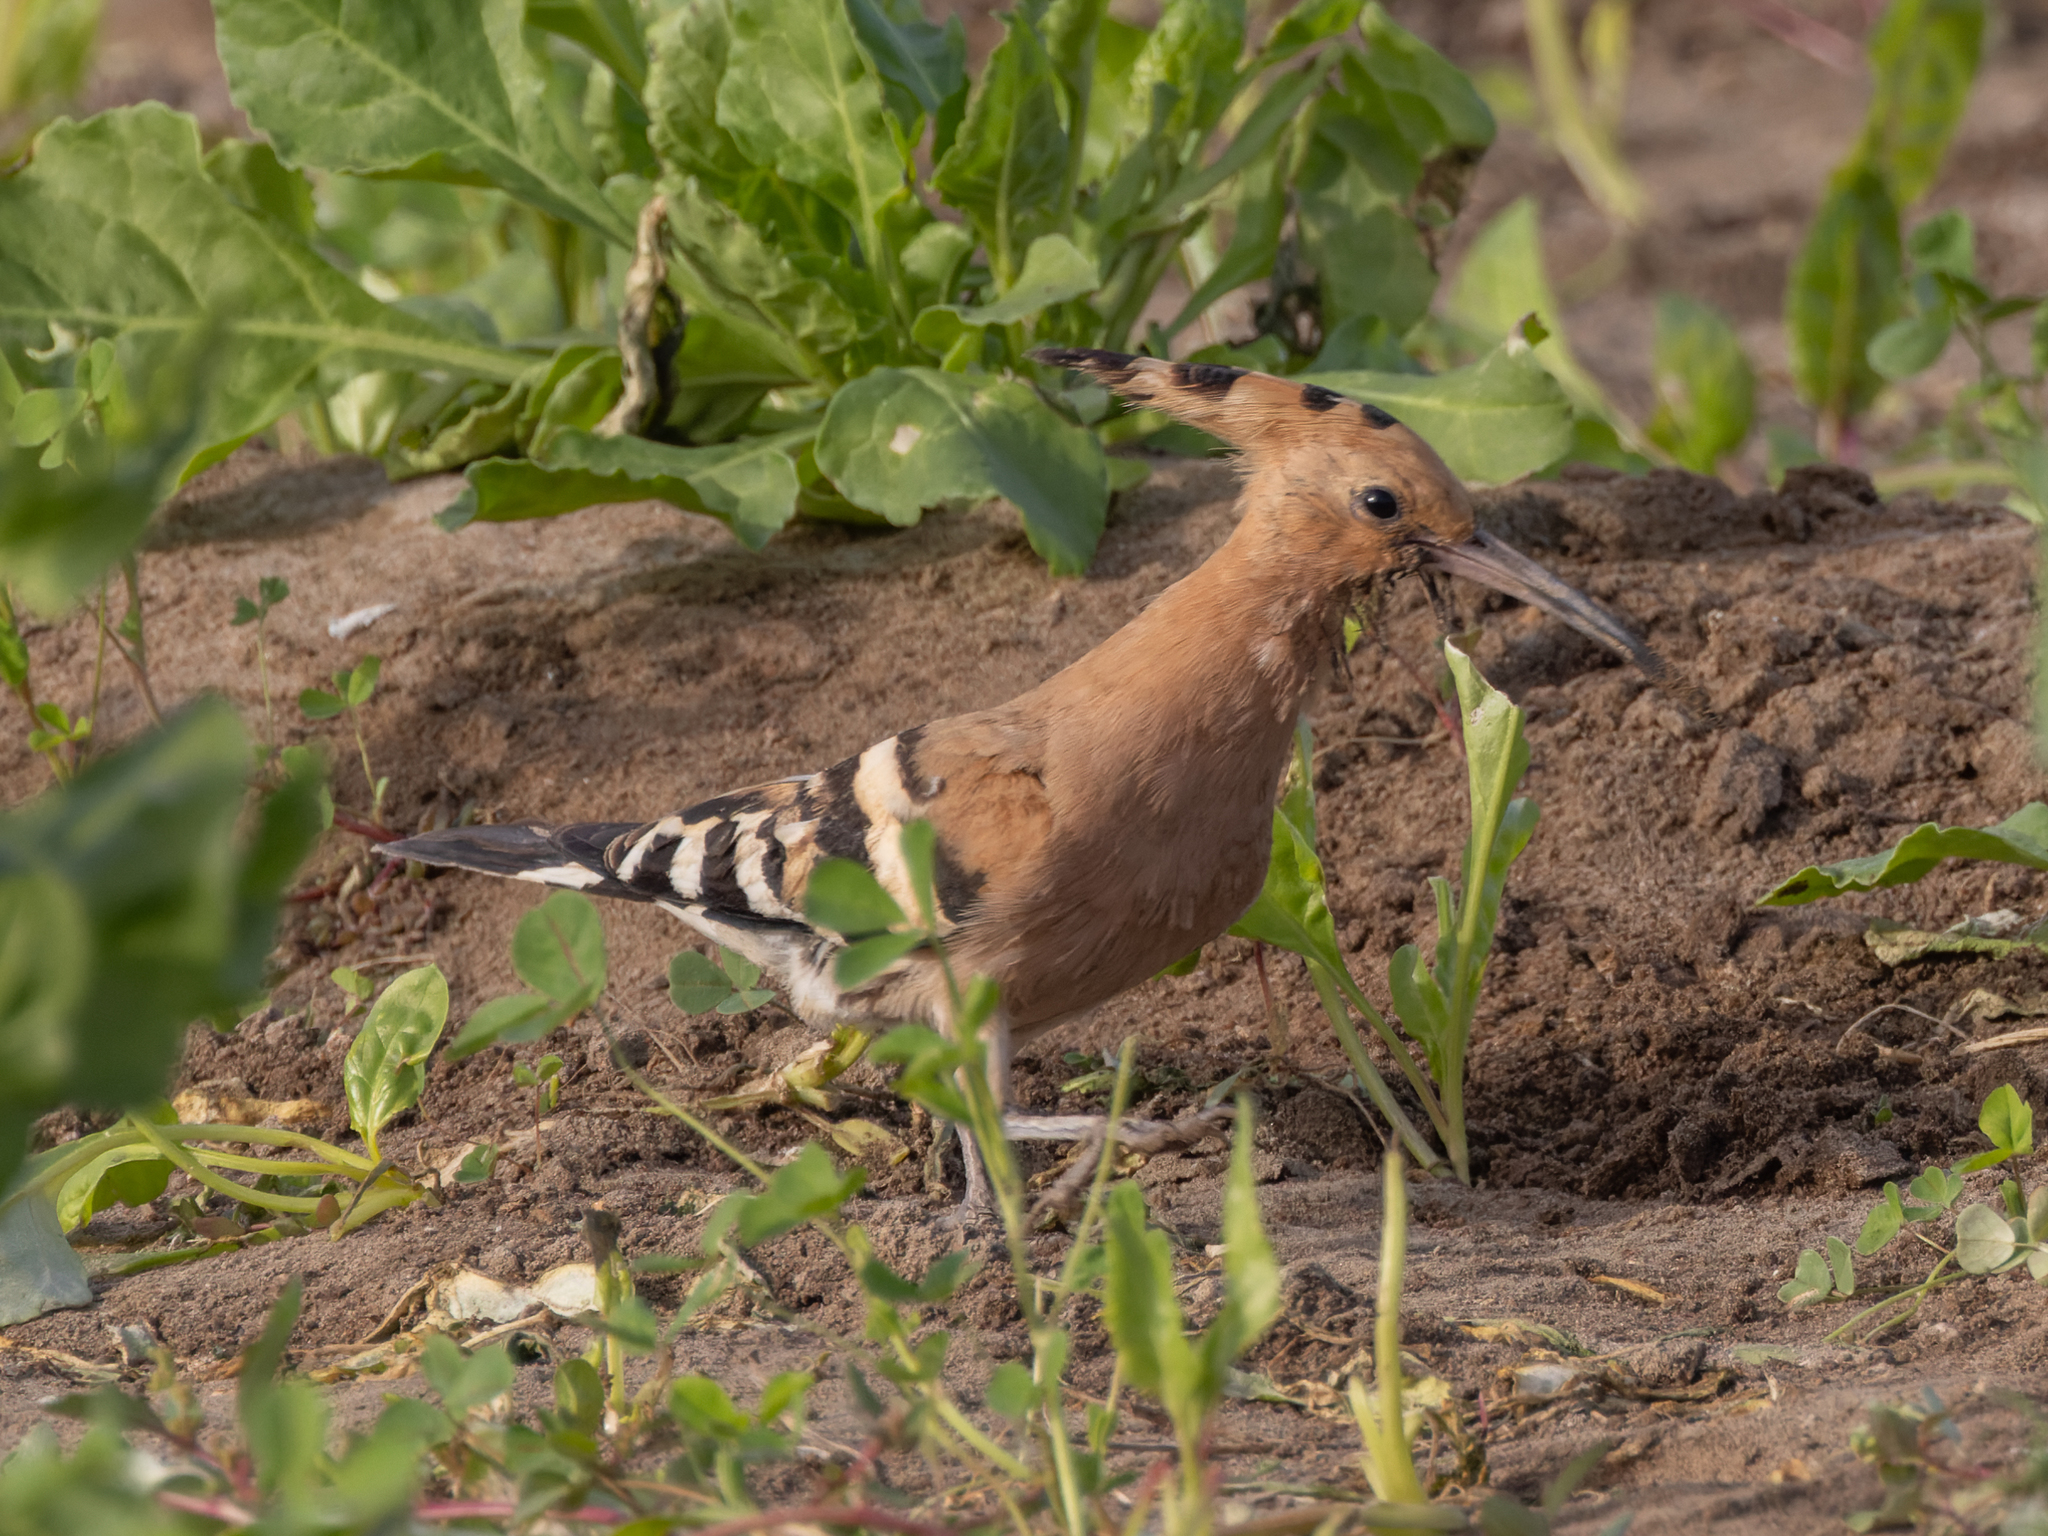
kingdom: Animalia
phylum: Chordata
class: Aves
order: Bucerotiformes
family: Upupidae
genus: Upupa
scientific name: Upupa epops
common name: Eurasian hoopoe
